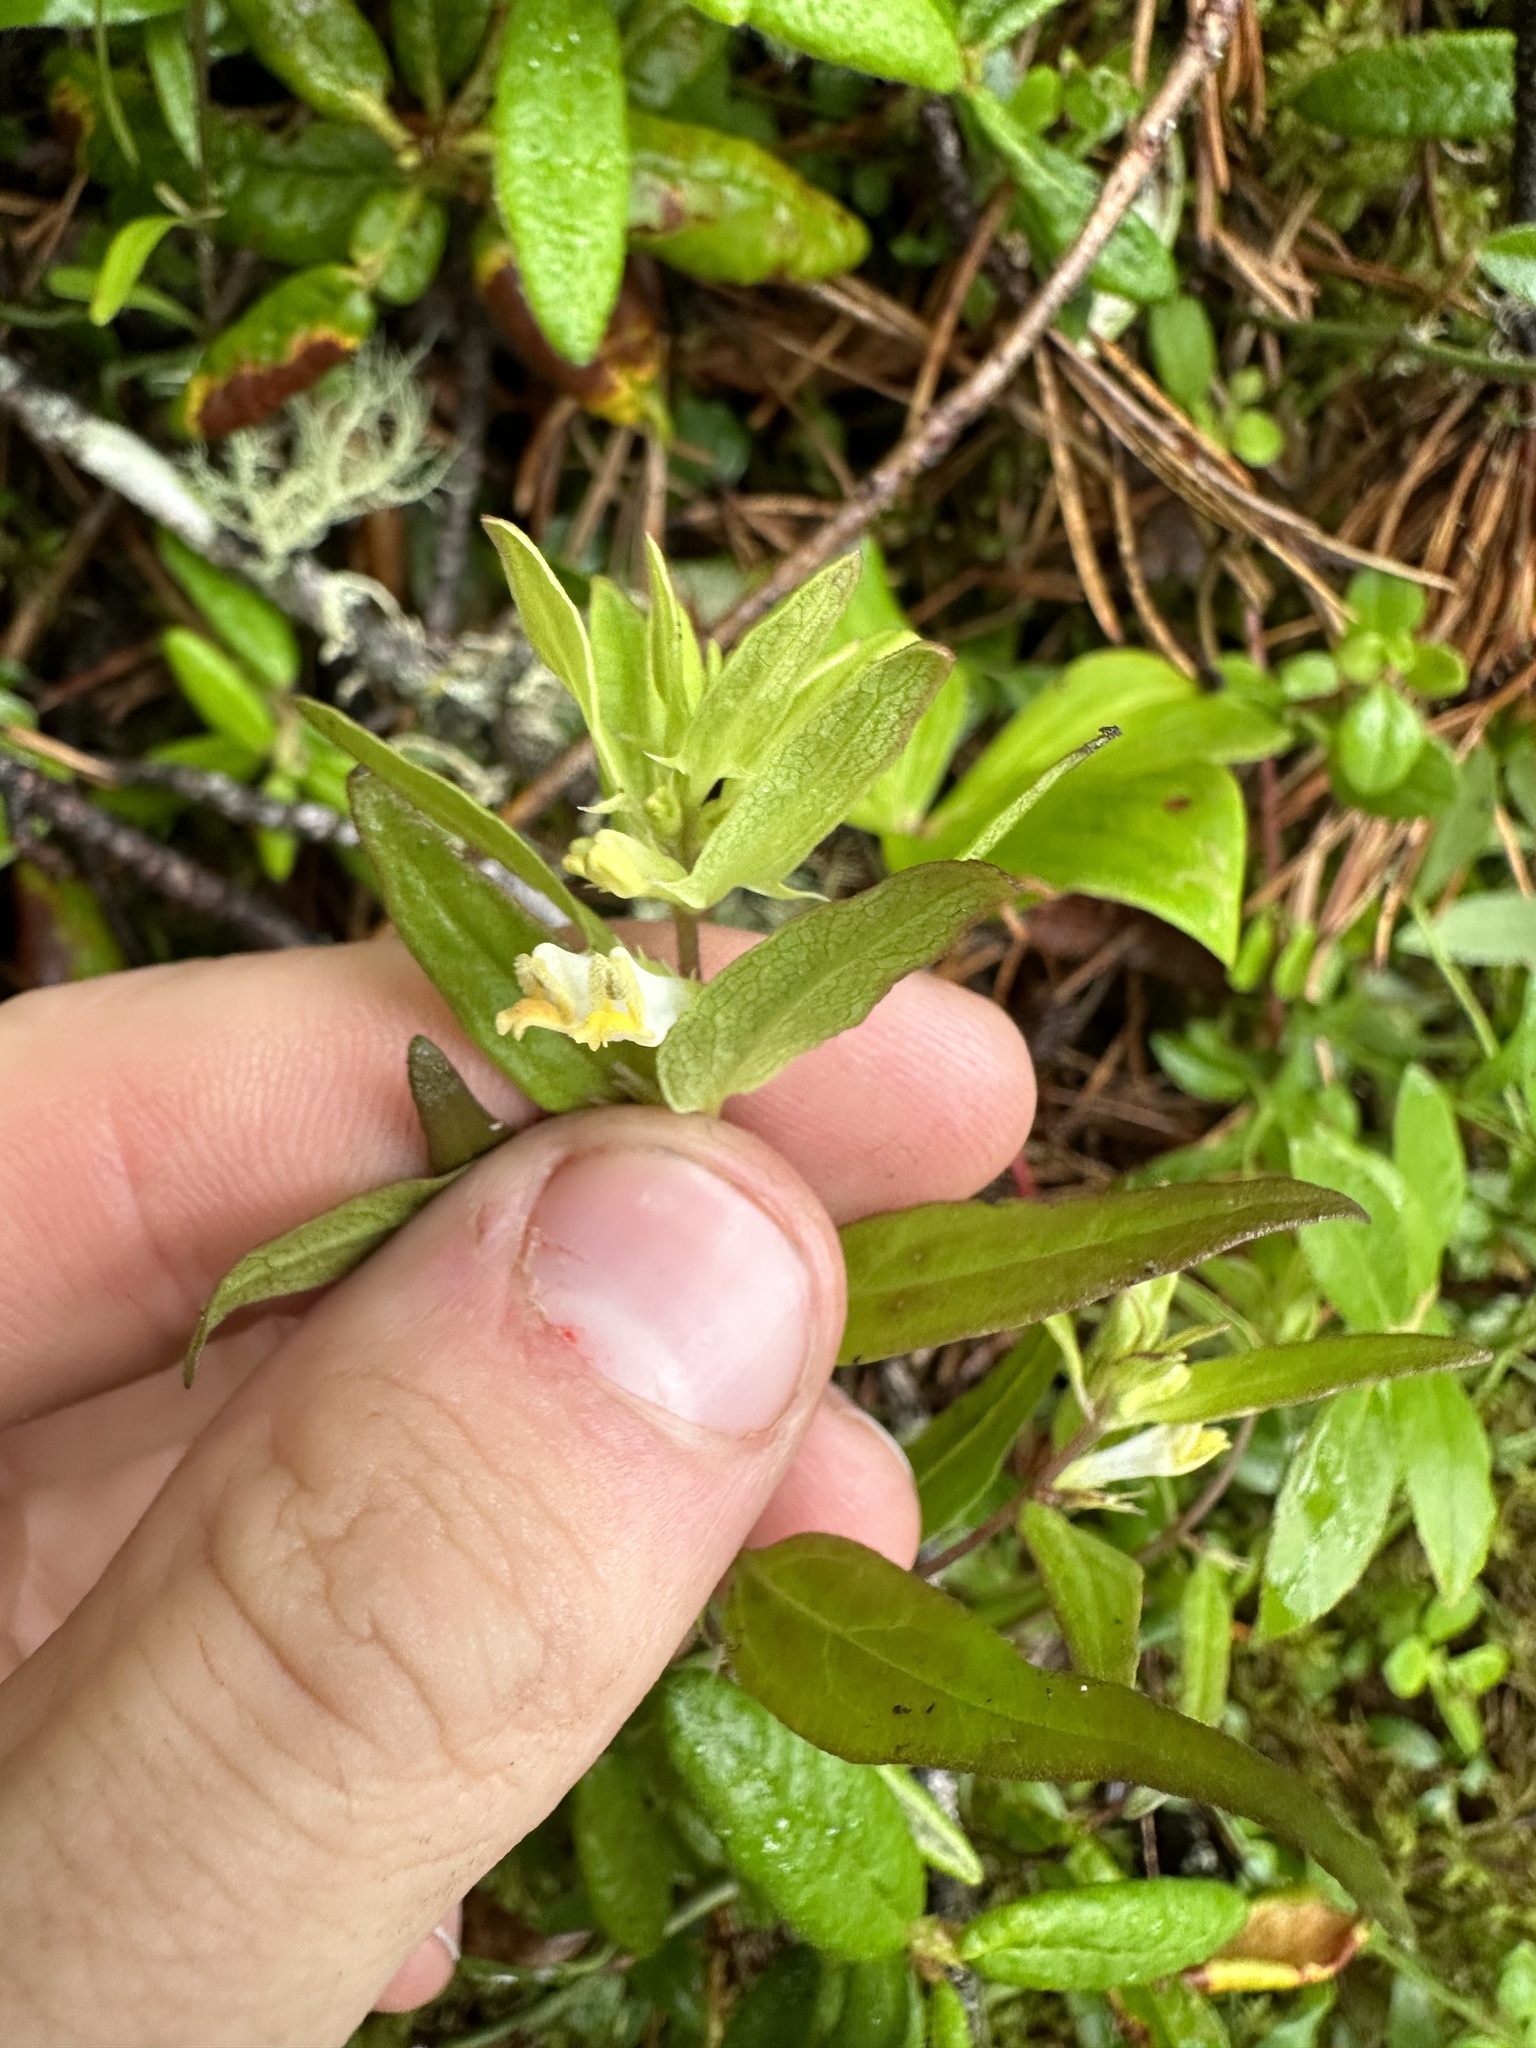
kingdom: Plantae
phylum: Tracheophyta
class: Magnoliopsida
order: Lamiales
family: Orobanchaceae
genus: Melampyrum
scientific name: Melampyrum lineare
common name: American cow-wheat
